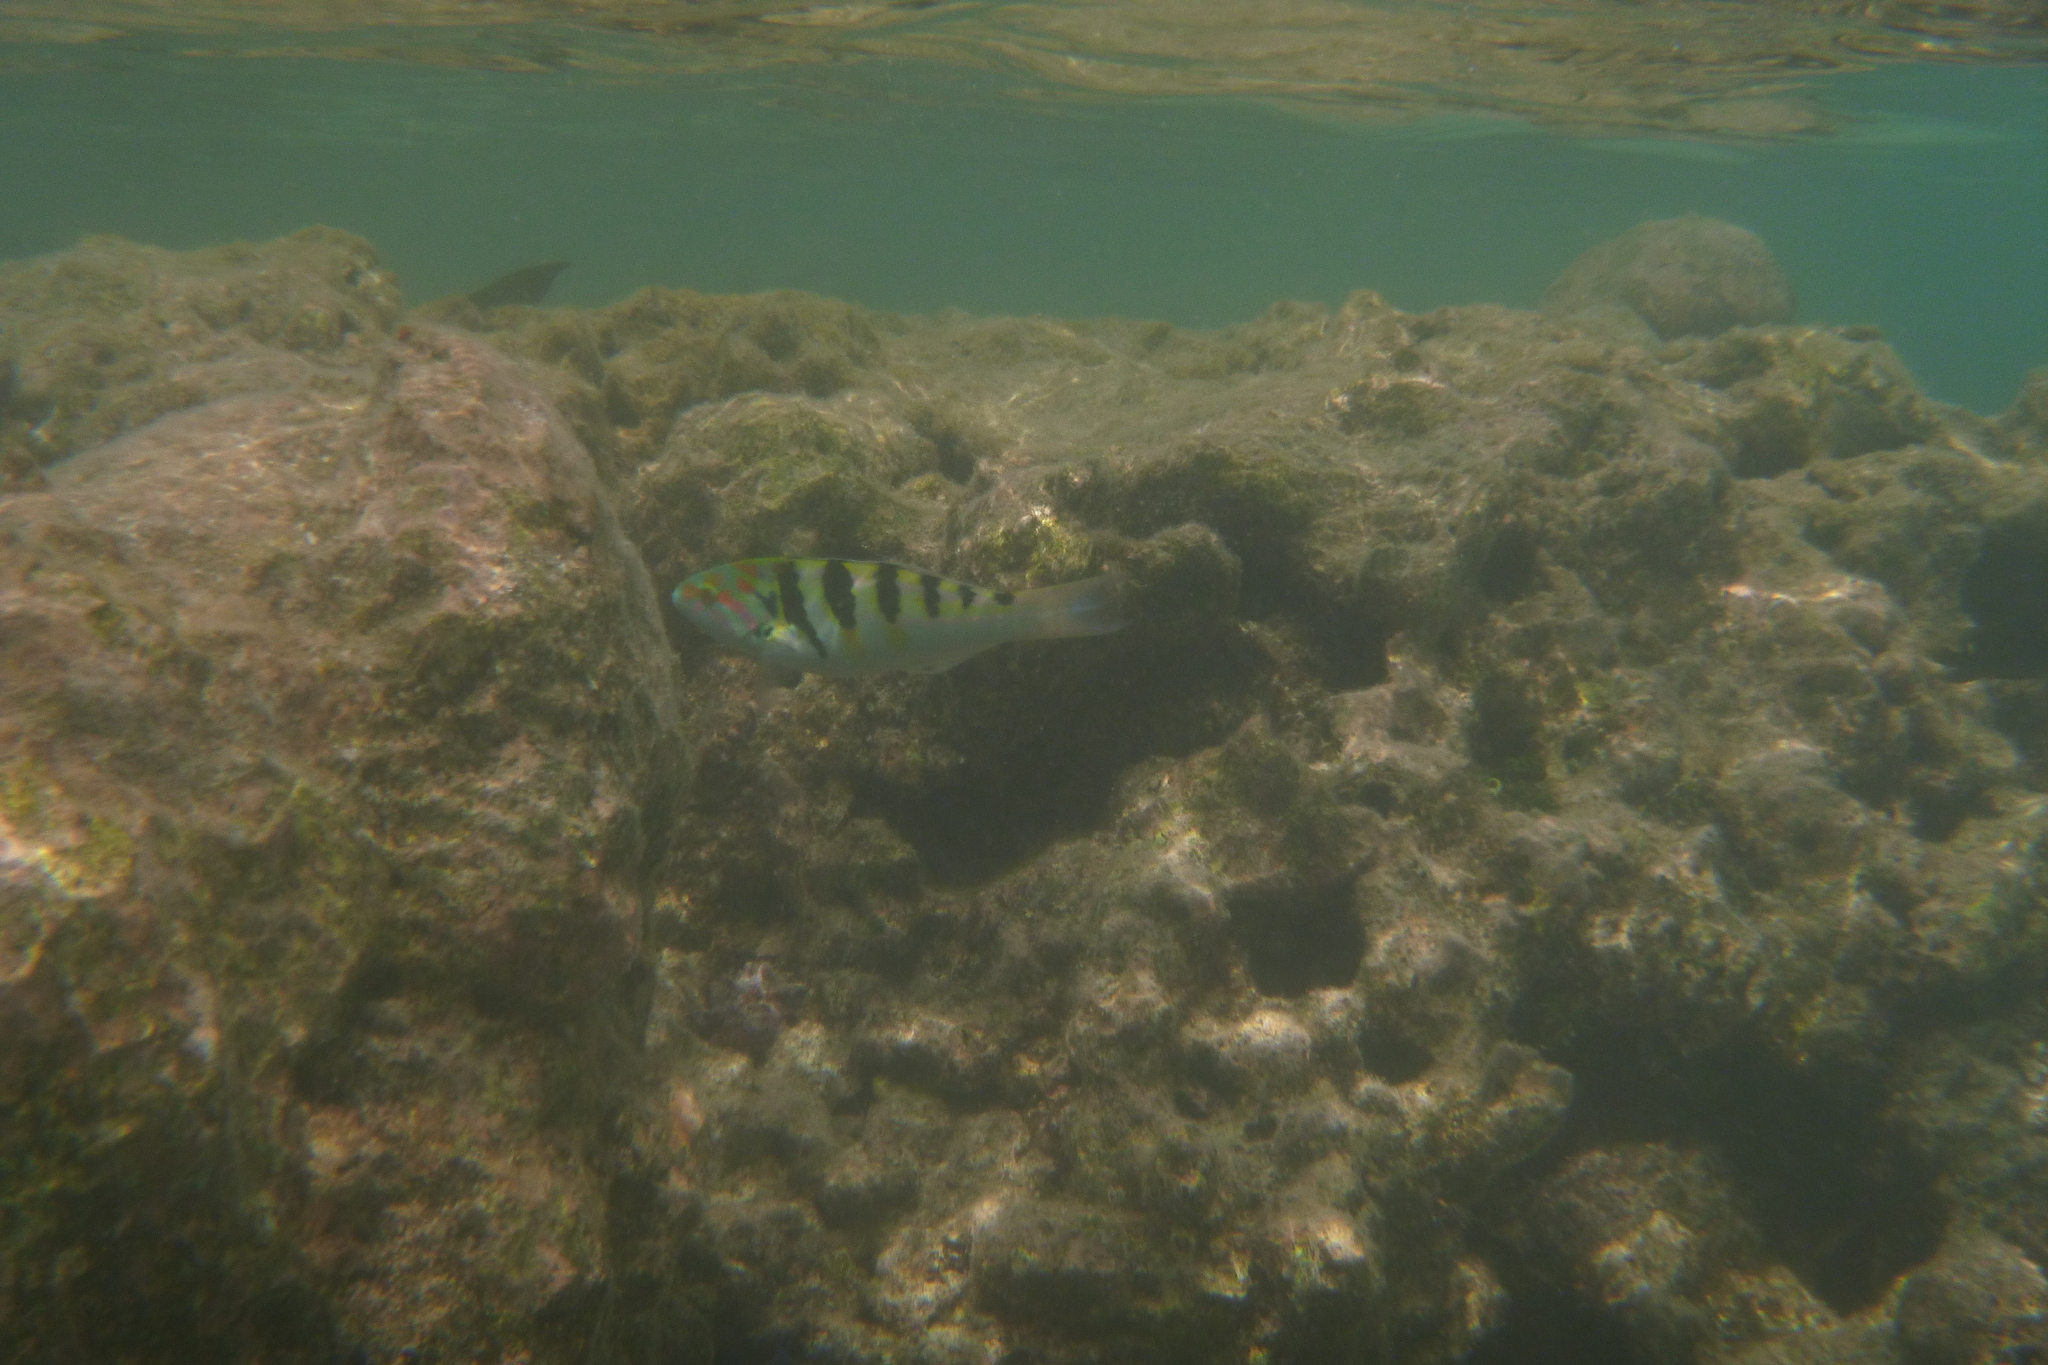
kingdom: Animalia
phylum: Chordata
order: Perciformes
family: Labridae
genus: Thalassoma
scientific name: Thalassoma hardwicke
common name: Sixbar wrasse
